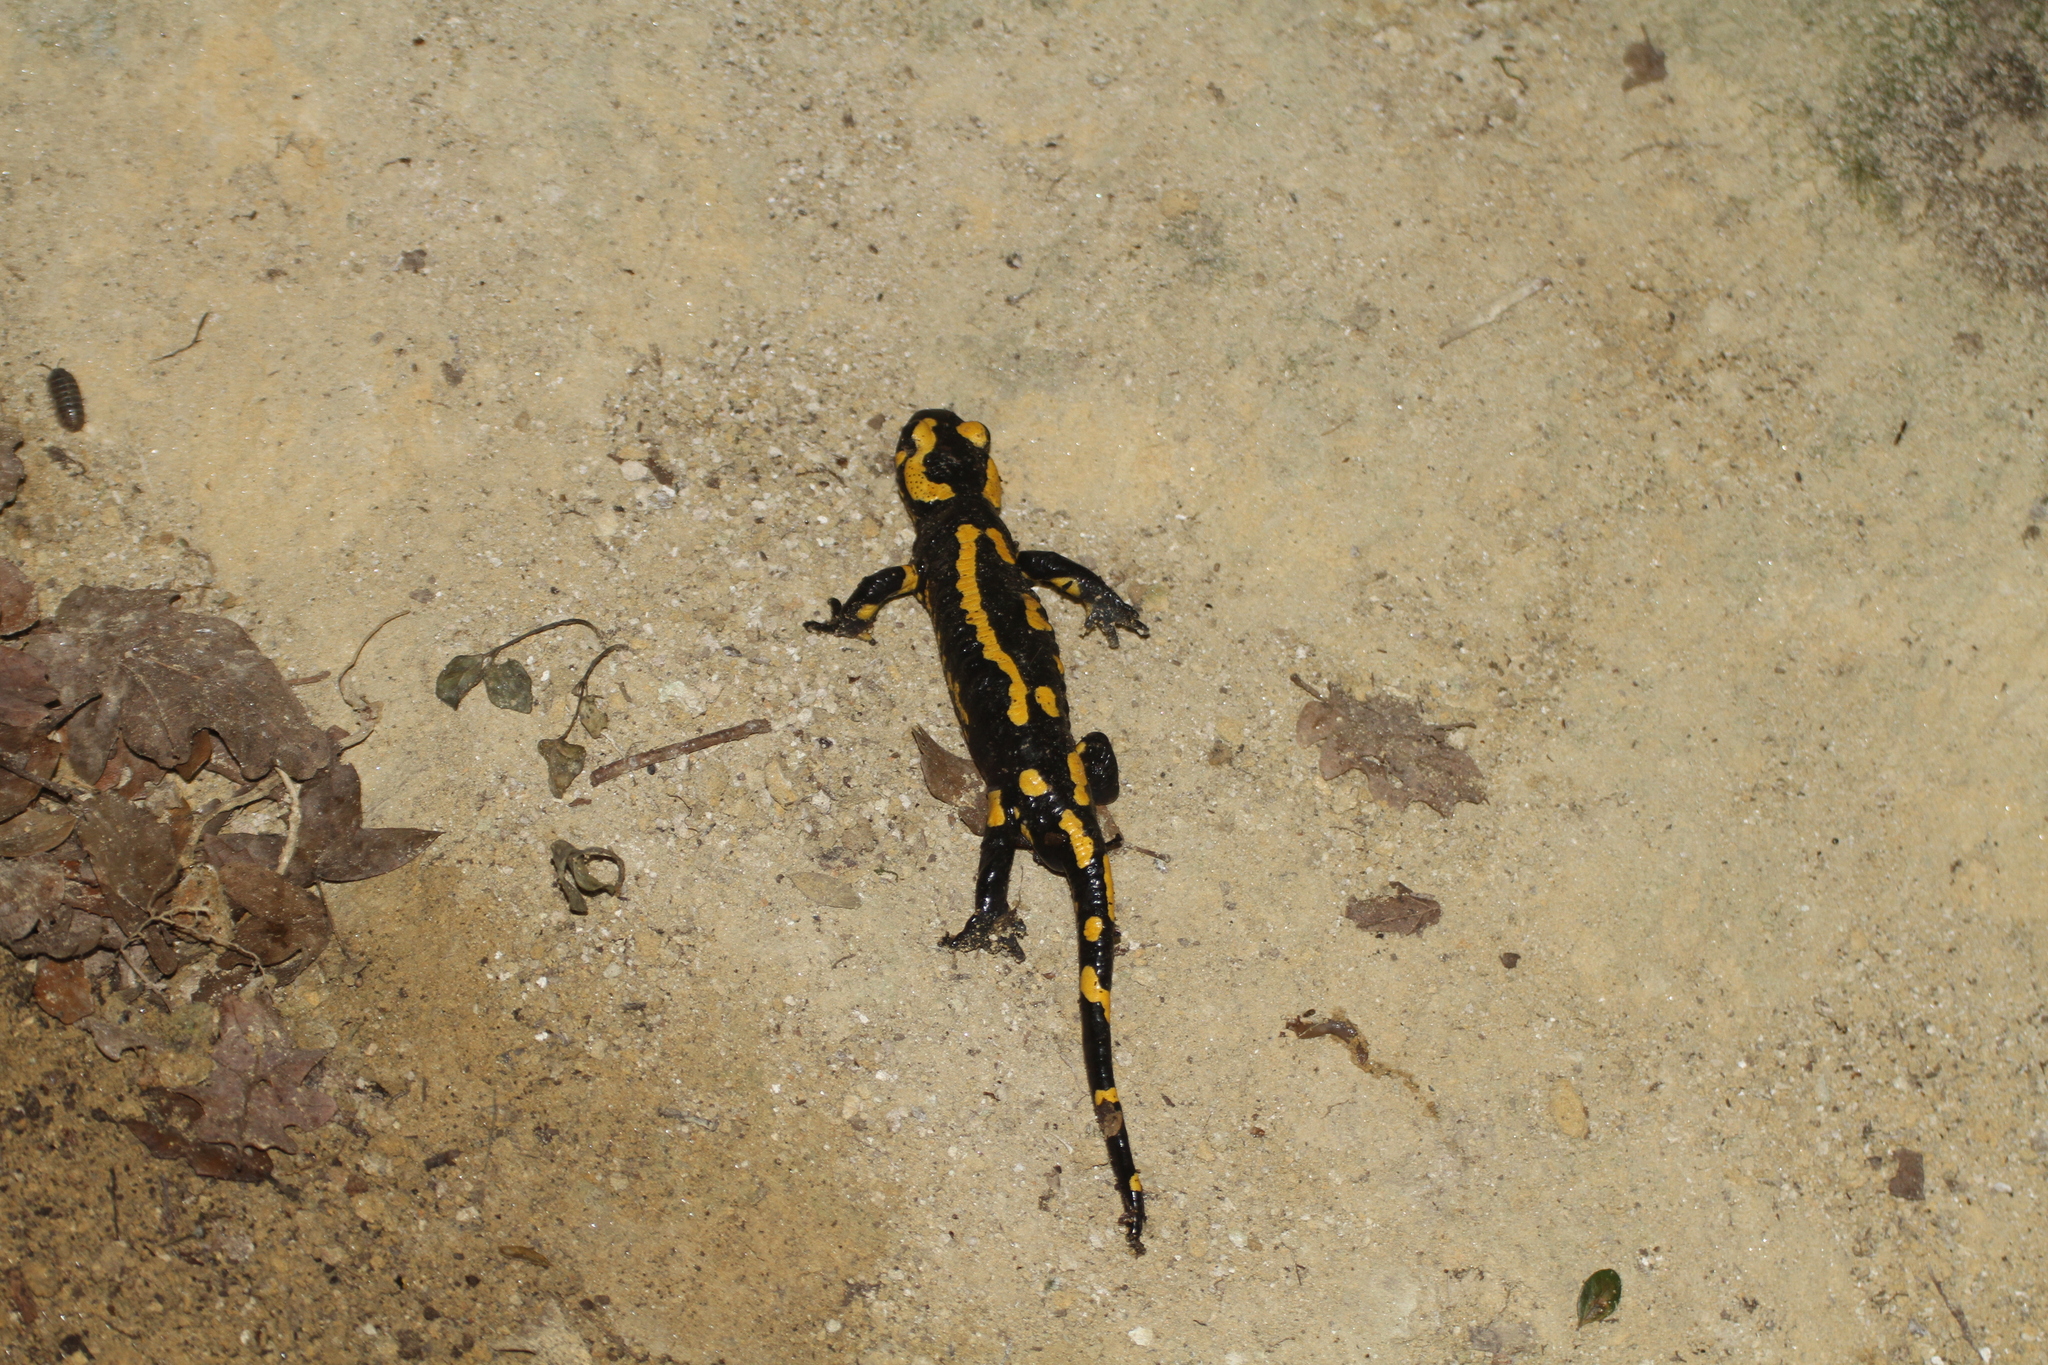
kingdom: Animalia
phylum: Chordata
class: Amphibia
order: Caudata
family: Salamandridae
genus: Salamandra
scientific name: Salamandra salamandra
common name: Fire salamander
